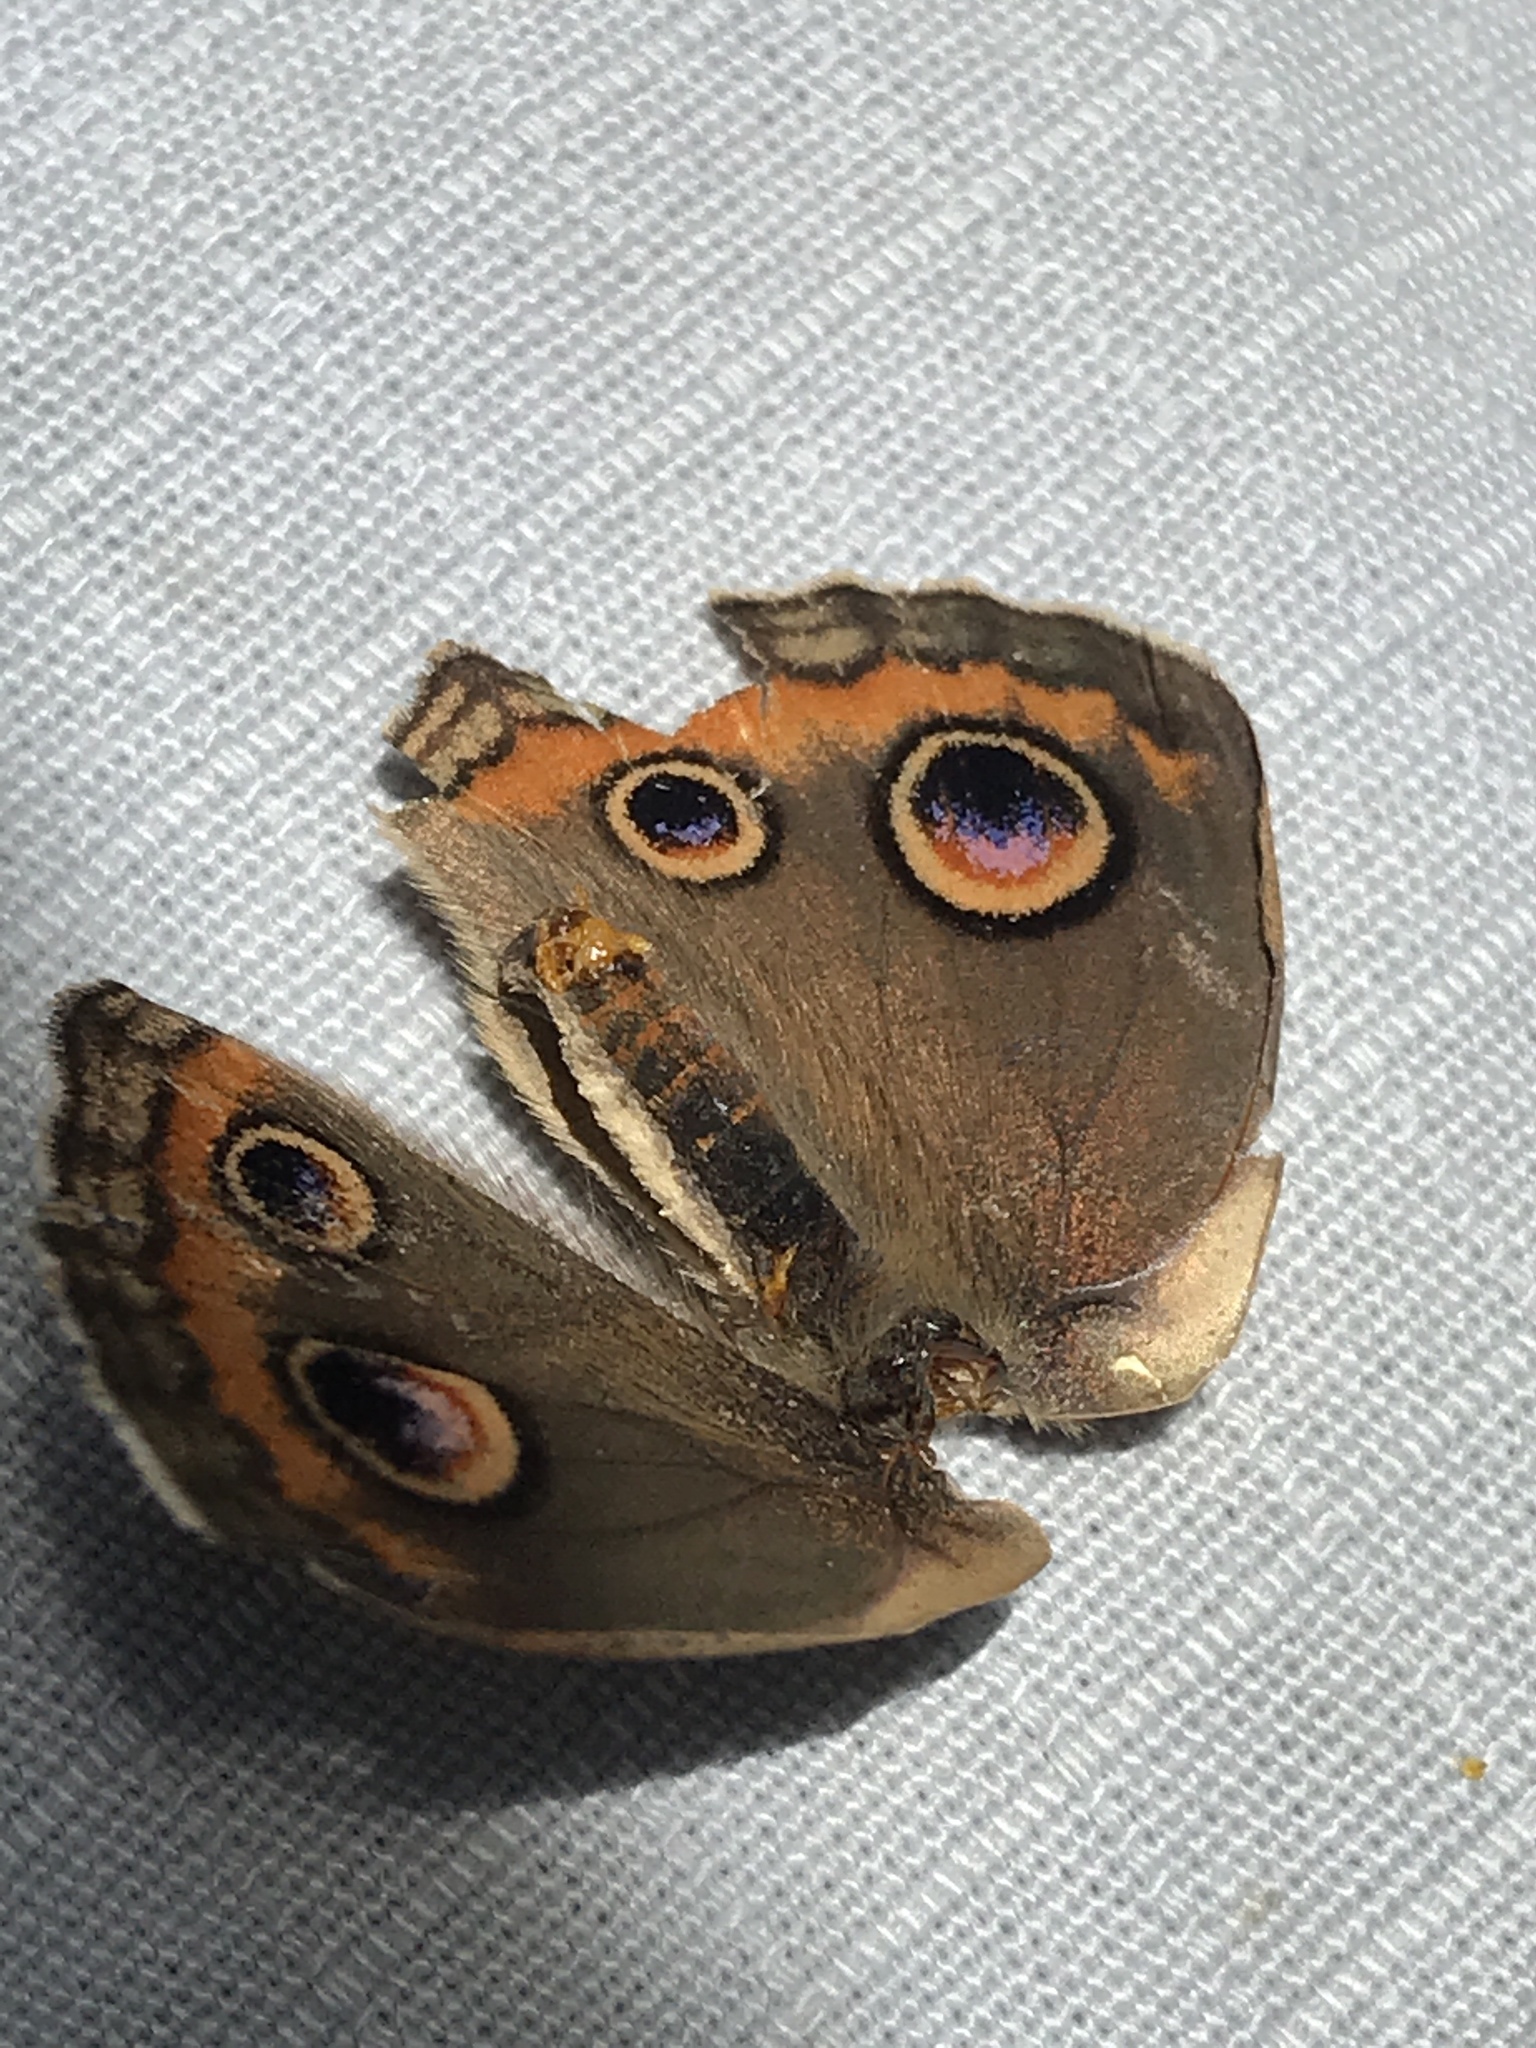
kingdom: Animalia
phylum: Arthropoda
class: Insecta
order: Lepidoptera
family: Nymphalidae
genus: Junonia
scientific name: Junonia coenia
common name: Common buckeye
